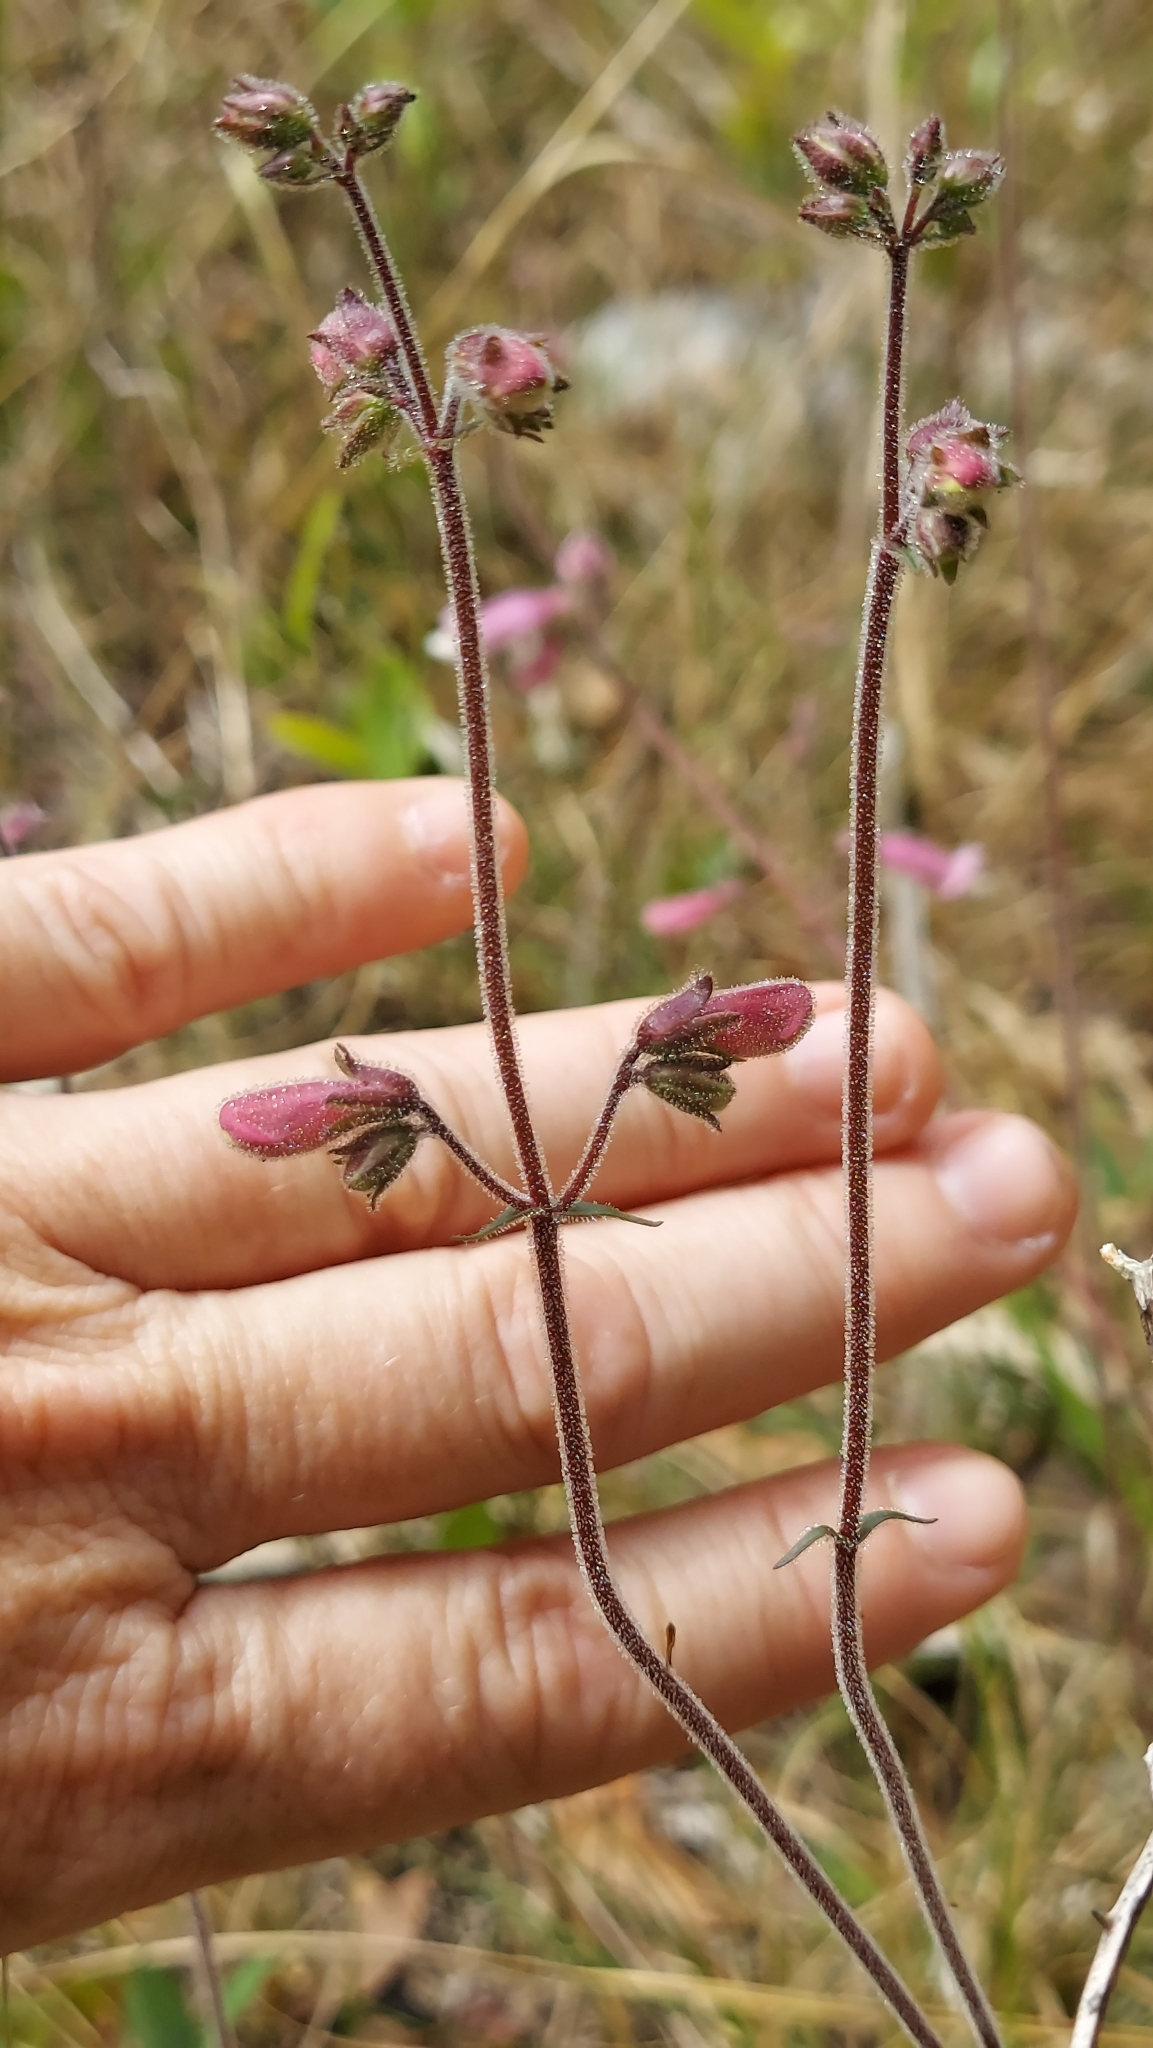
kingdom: Plantae
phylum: Tracheophyta
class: Magnoliopsida
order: Lamiales
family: Plantaginaceae
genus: Penstemon
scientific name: Penstemon australis
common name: Southeastern beardtongue
